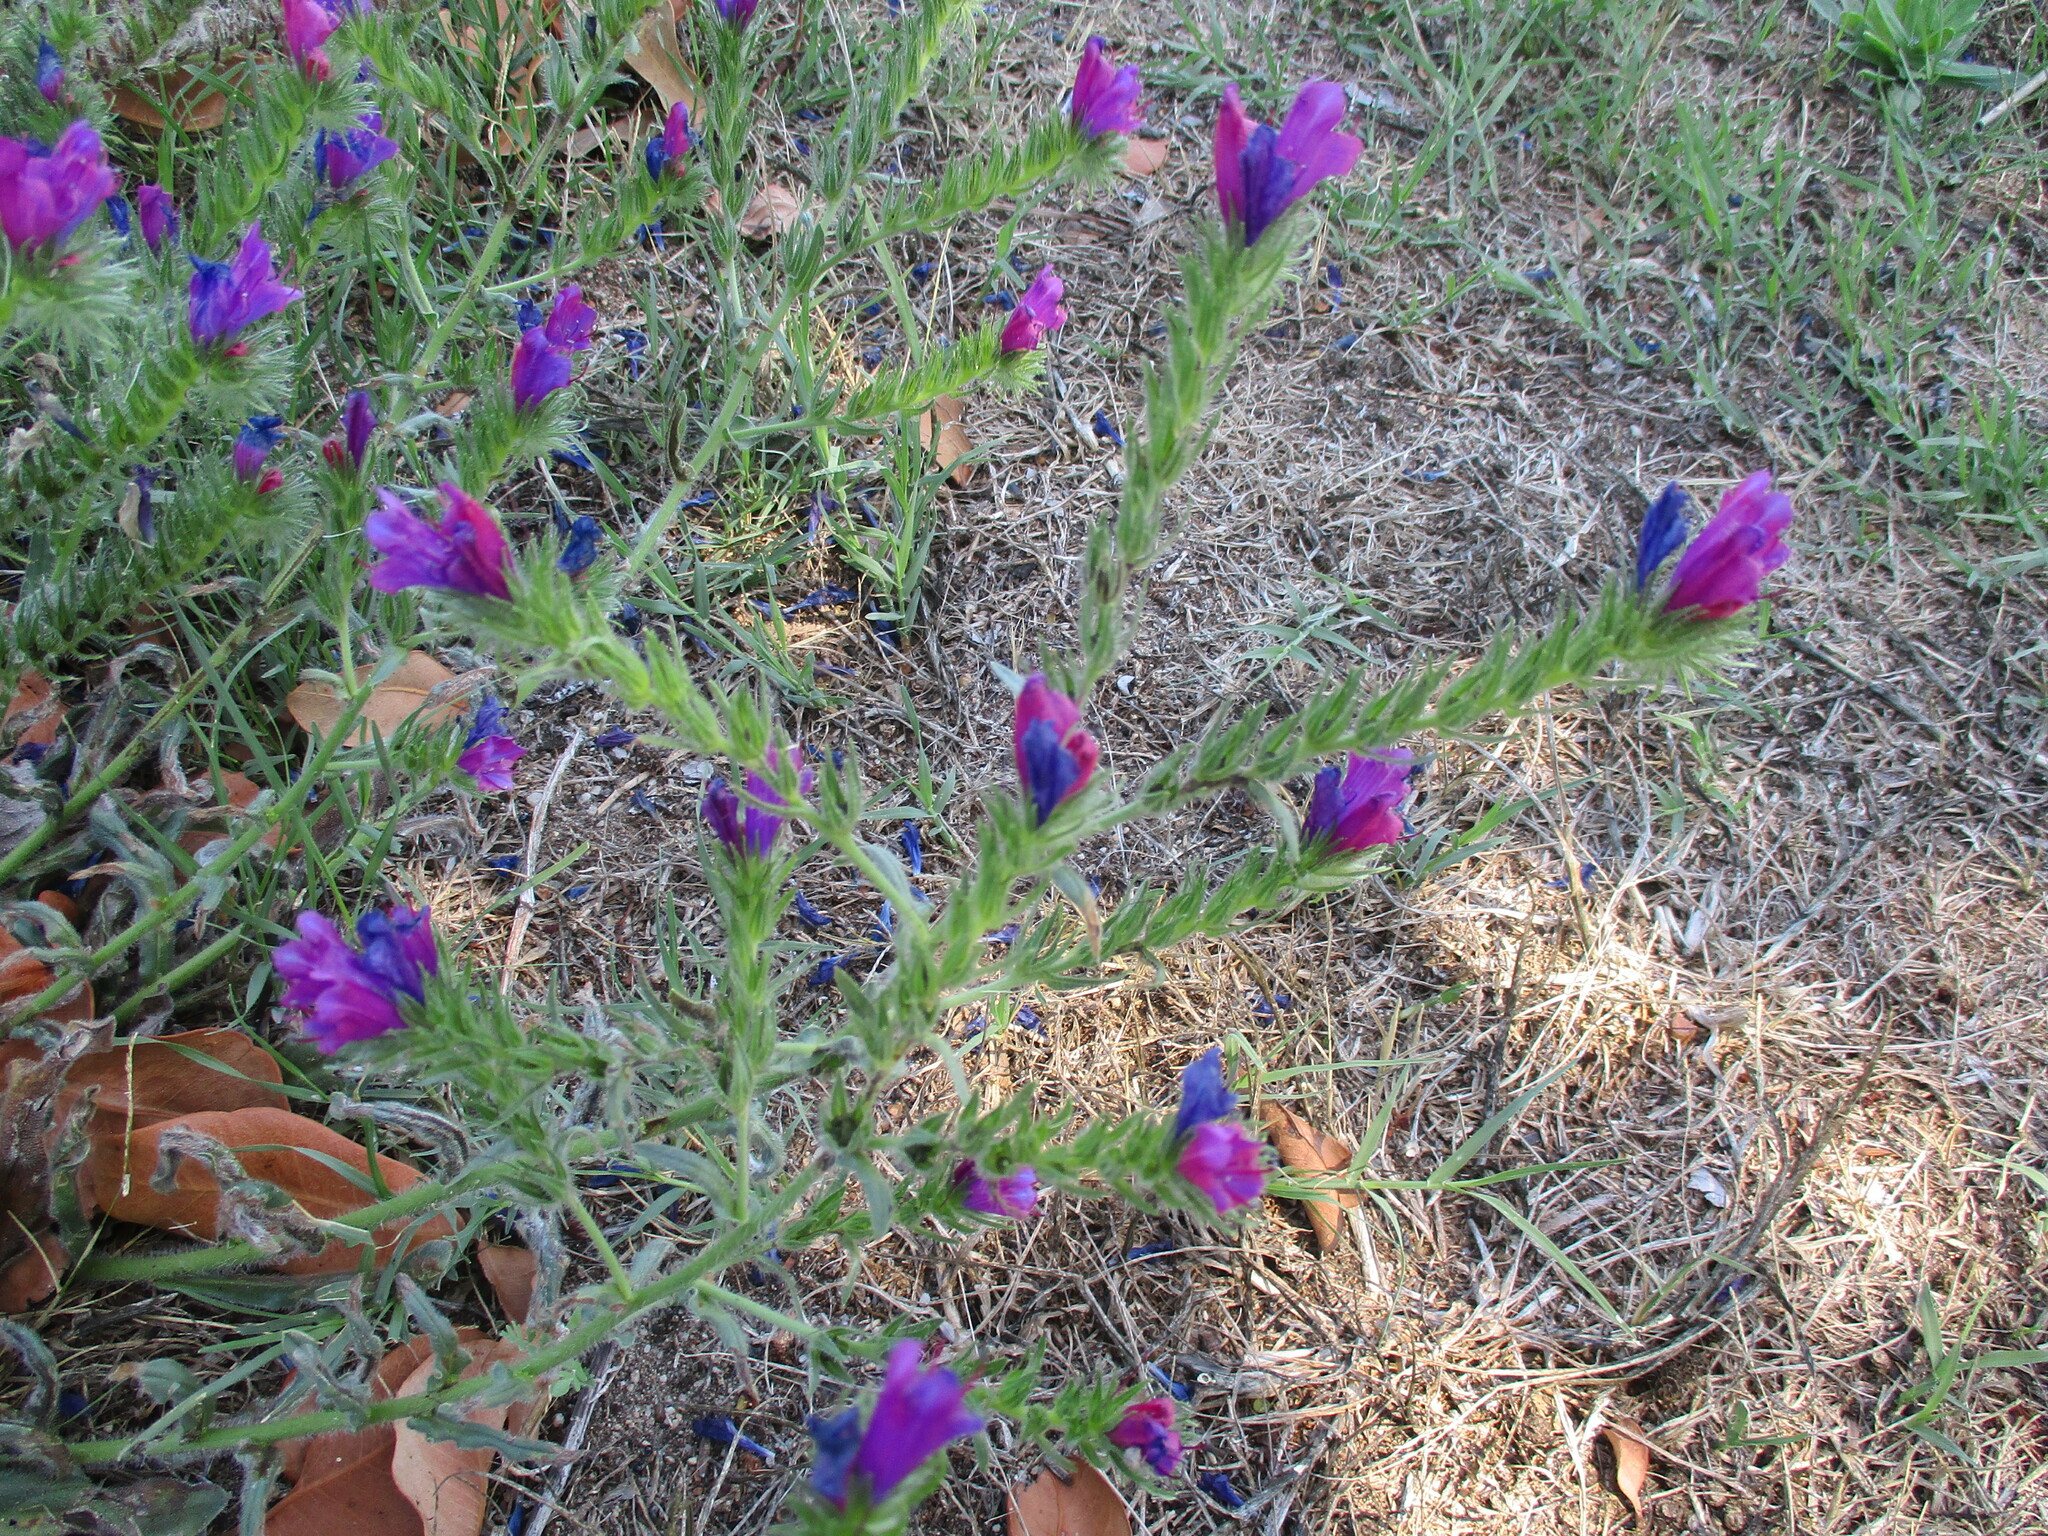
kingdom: Plantae
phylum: Tracheophyta
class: Magnoliopsida
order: Boraginales
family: Boraginaceae
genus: Echium
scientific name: Echium plantagineum
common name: Purple viper's-bugloss
